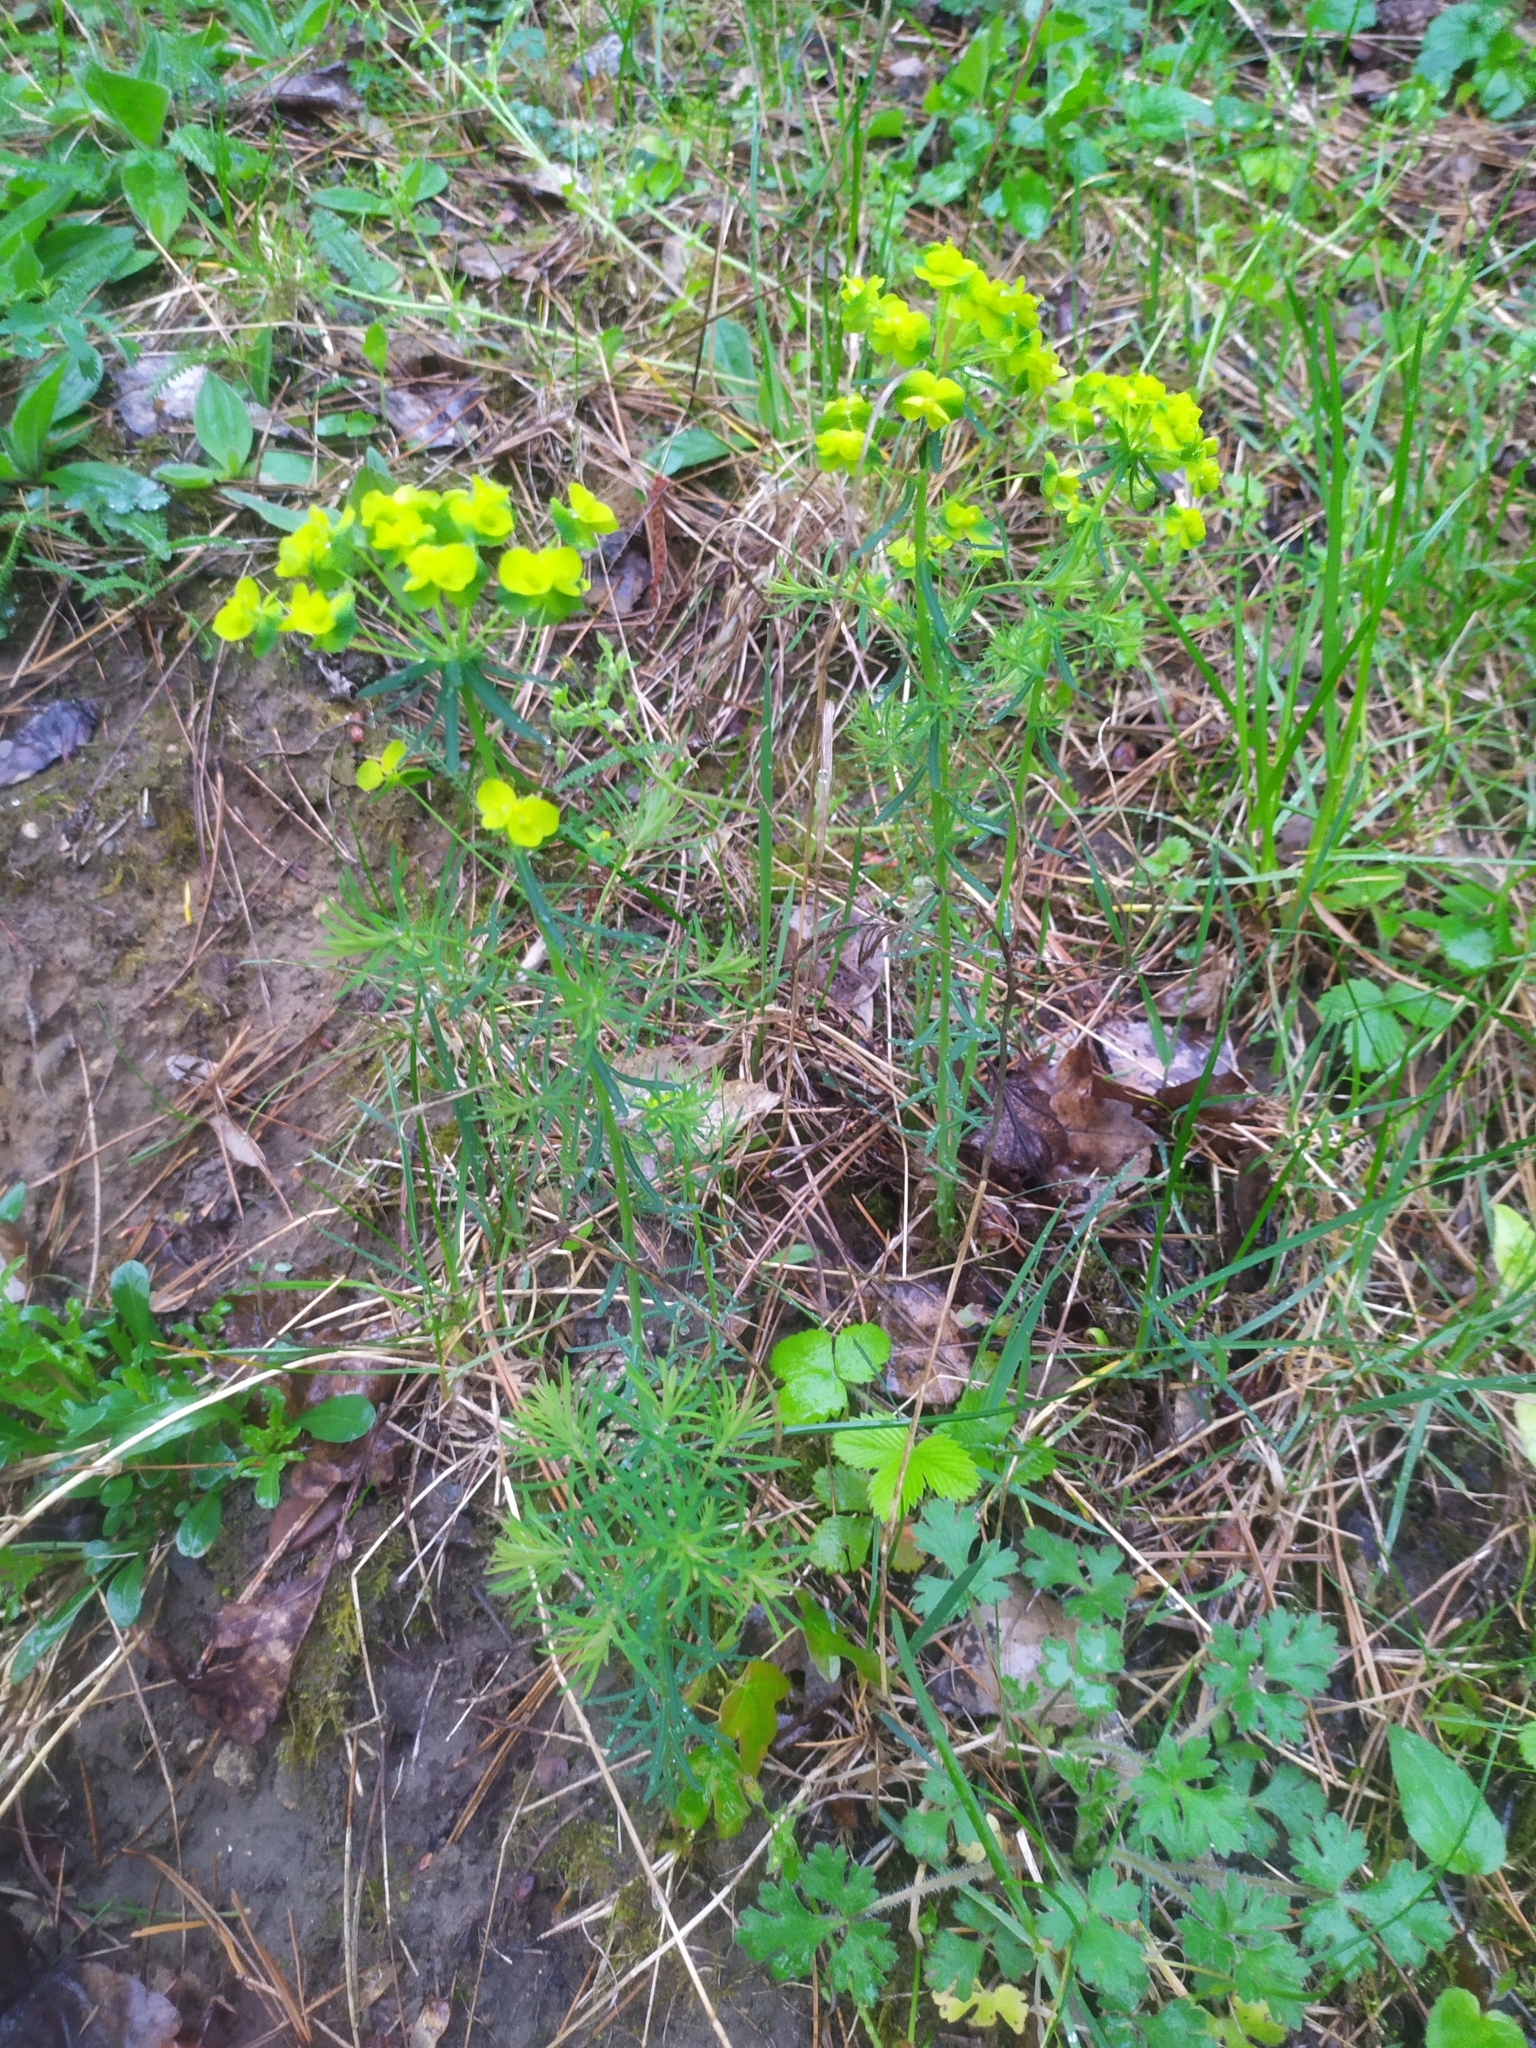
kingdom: Plantae
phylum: Tracheophyta
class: Magnoliopsida
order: Malpighiales
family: Euphorbiaceae
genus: Euphorbia
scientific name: Euphorbia cyparissias
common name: Cypress spurge
